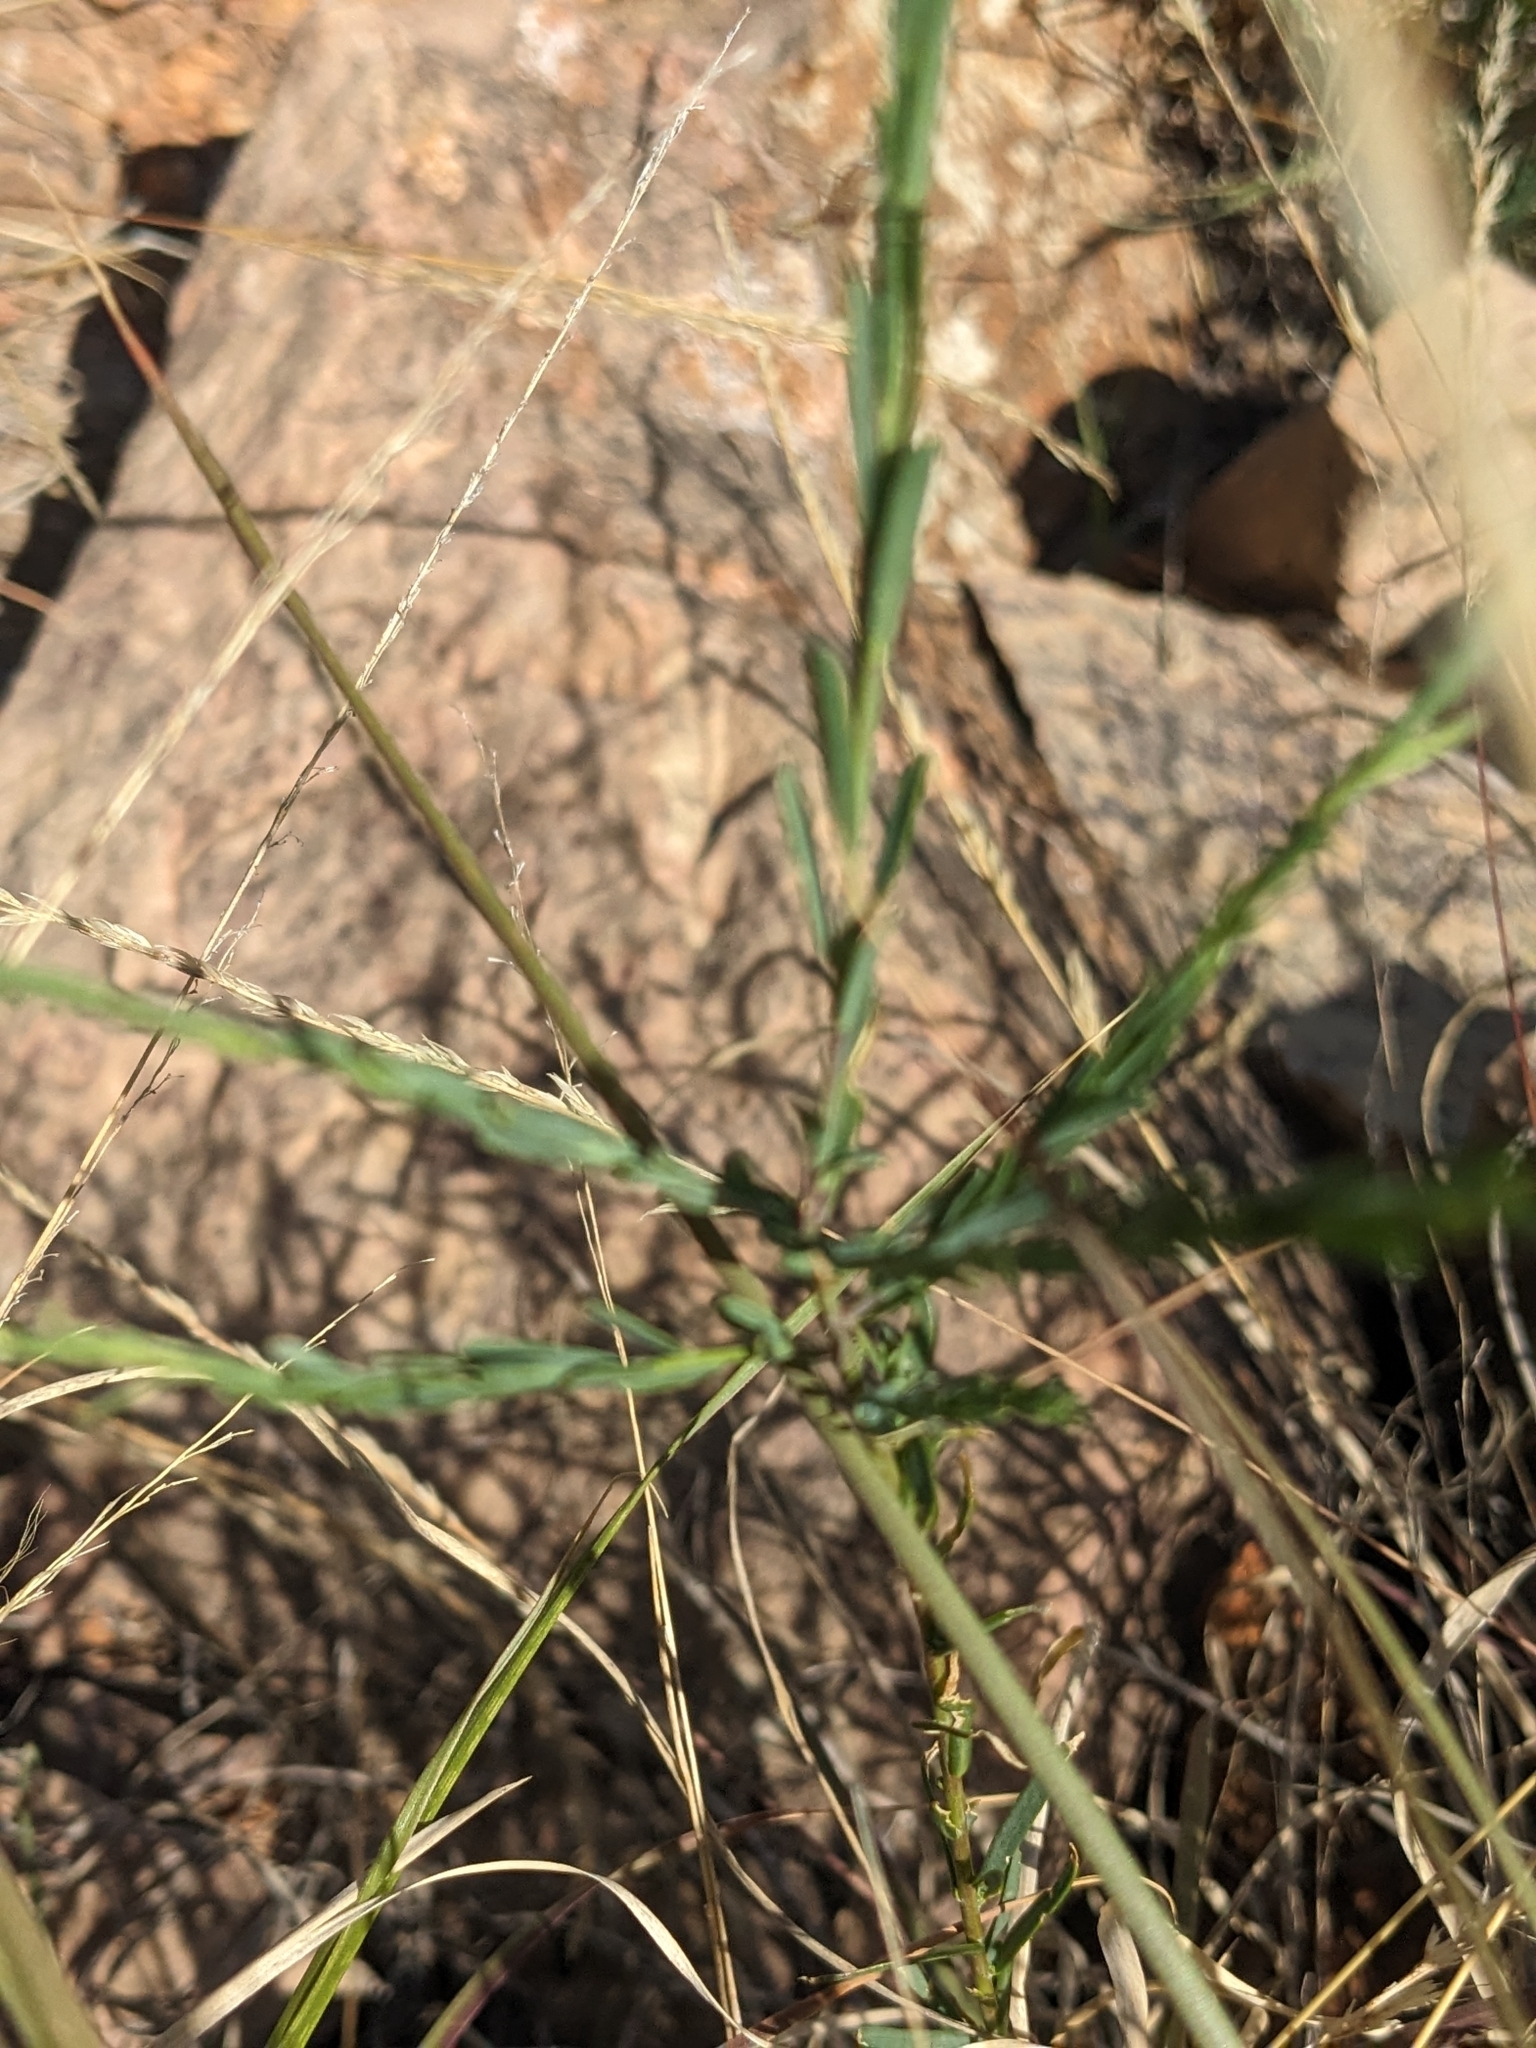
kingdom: Plantae
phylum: Tracheophyta
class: Magnoliopsida
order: Malpighiales
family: Linaceae
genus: Linum
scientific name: Linum lewisii
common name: Prairie flax
